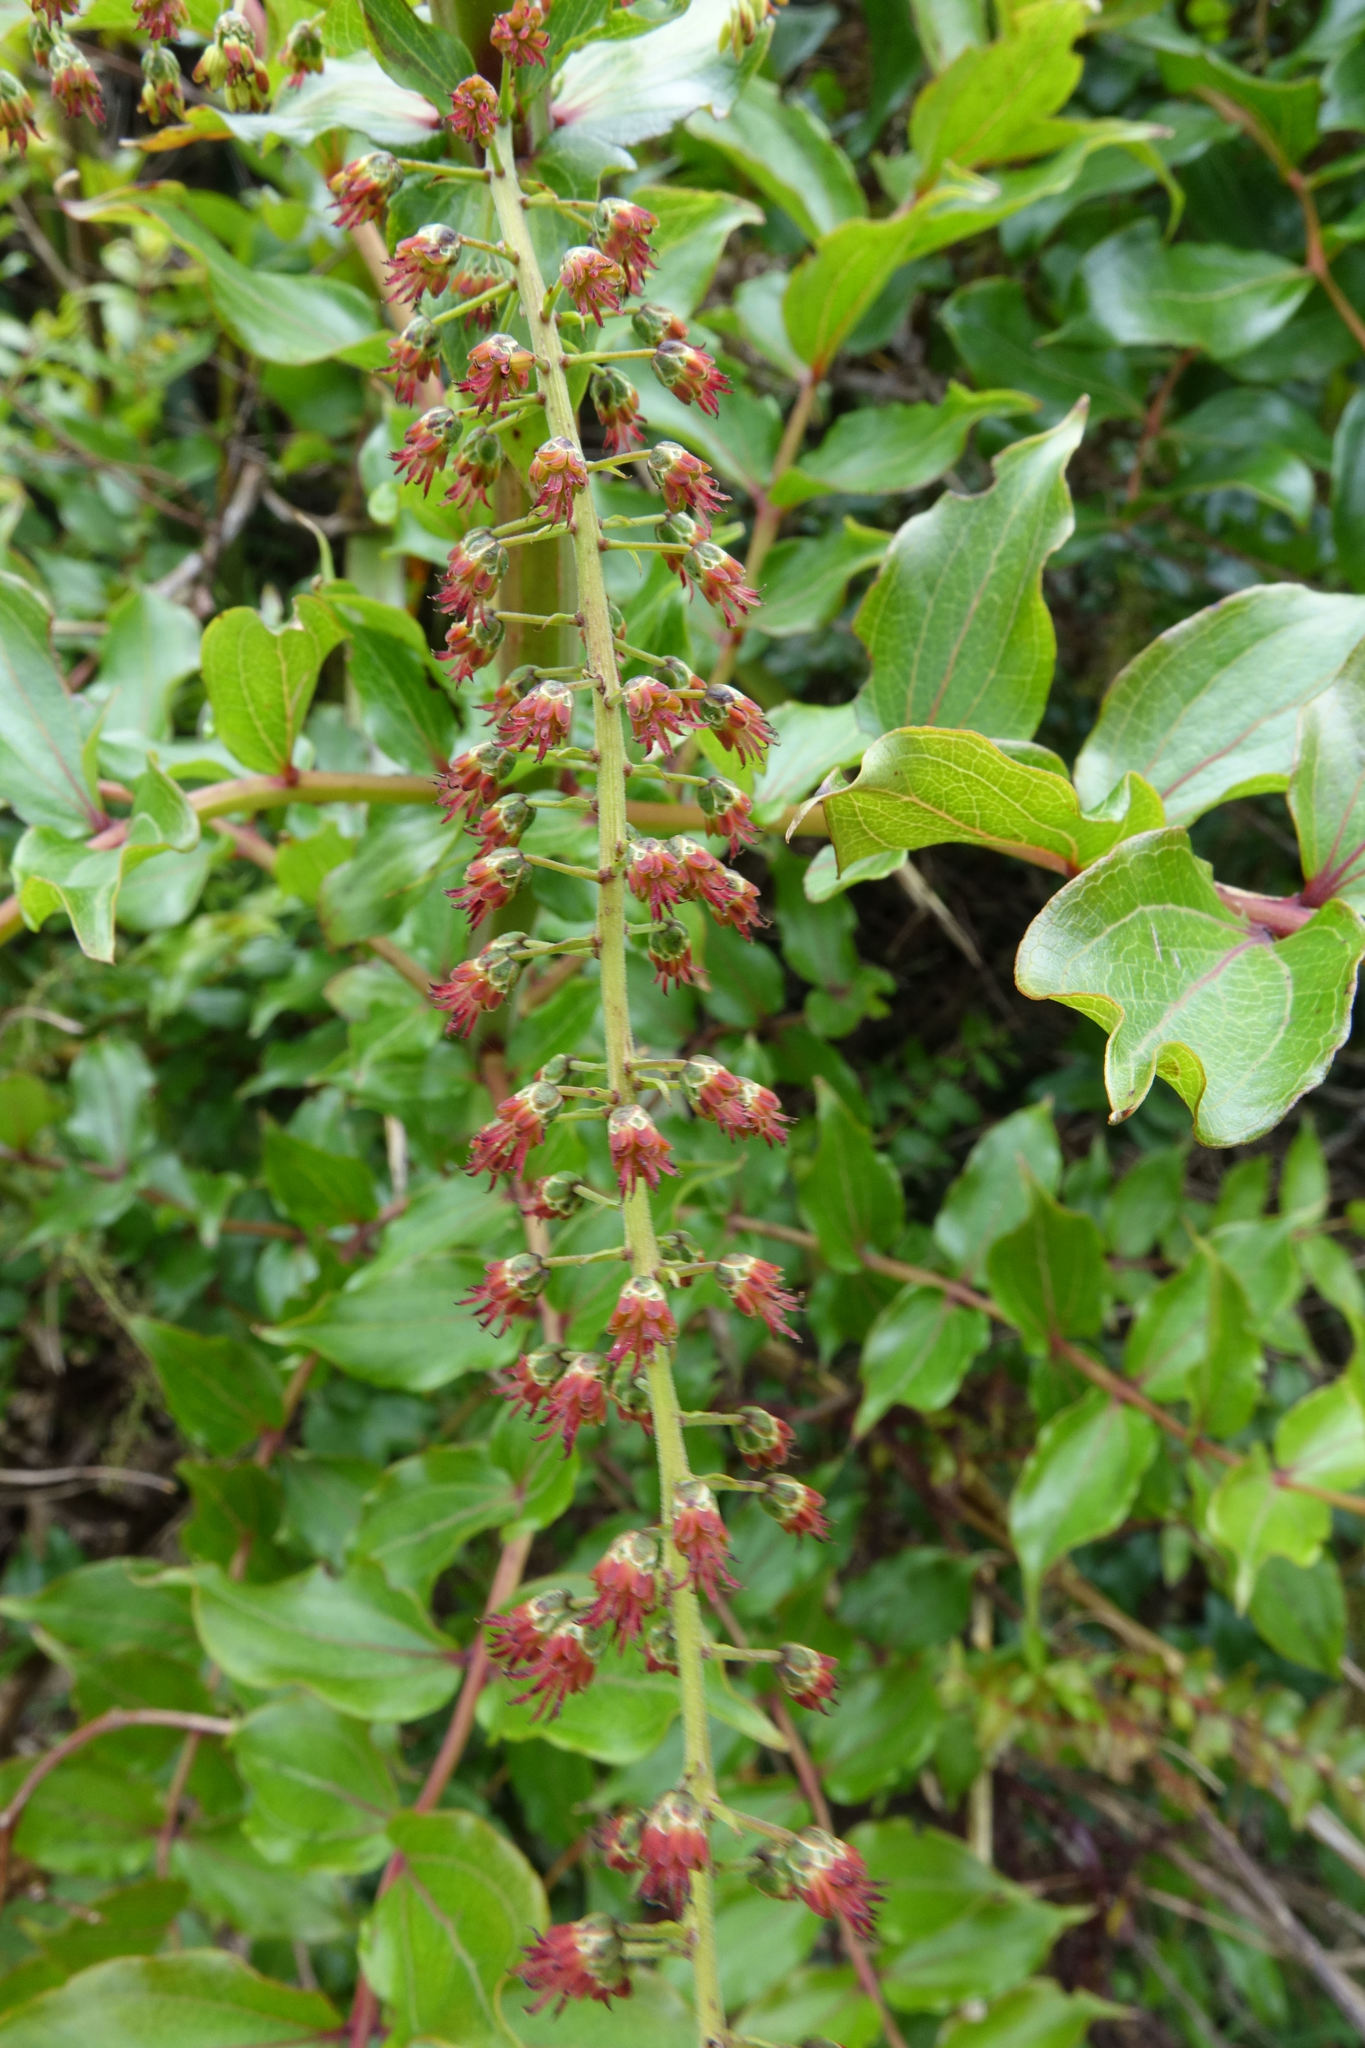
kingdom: Plantae
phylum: Tracheophyta
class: Magnoliopsida
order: Cucurbitales
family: Coriariaceae
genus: Coriaria
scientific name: Coriaria arborea
